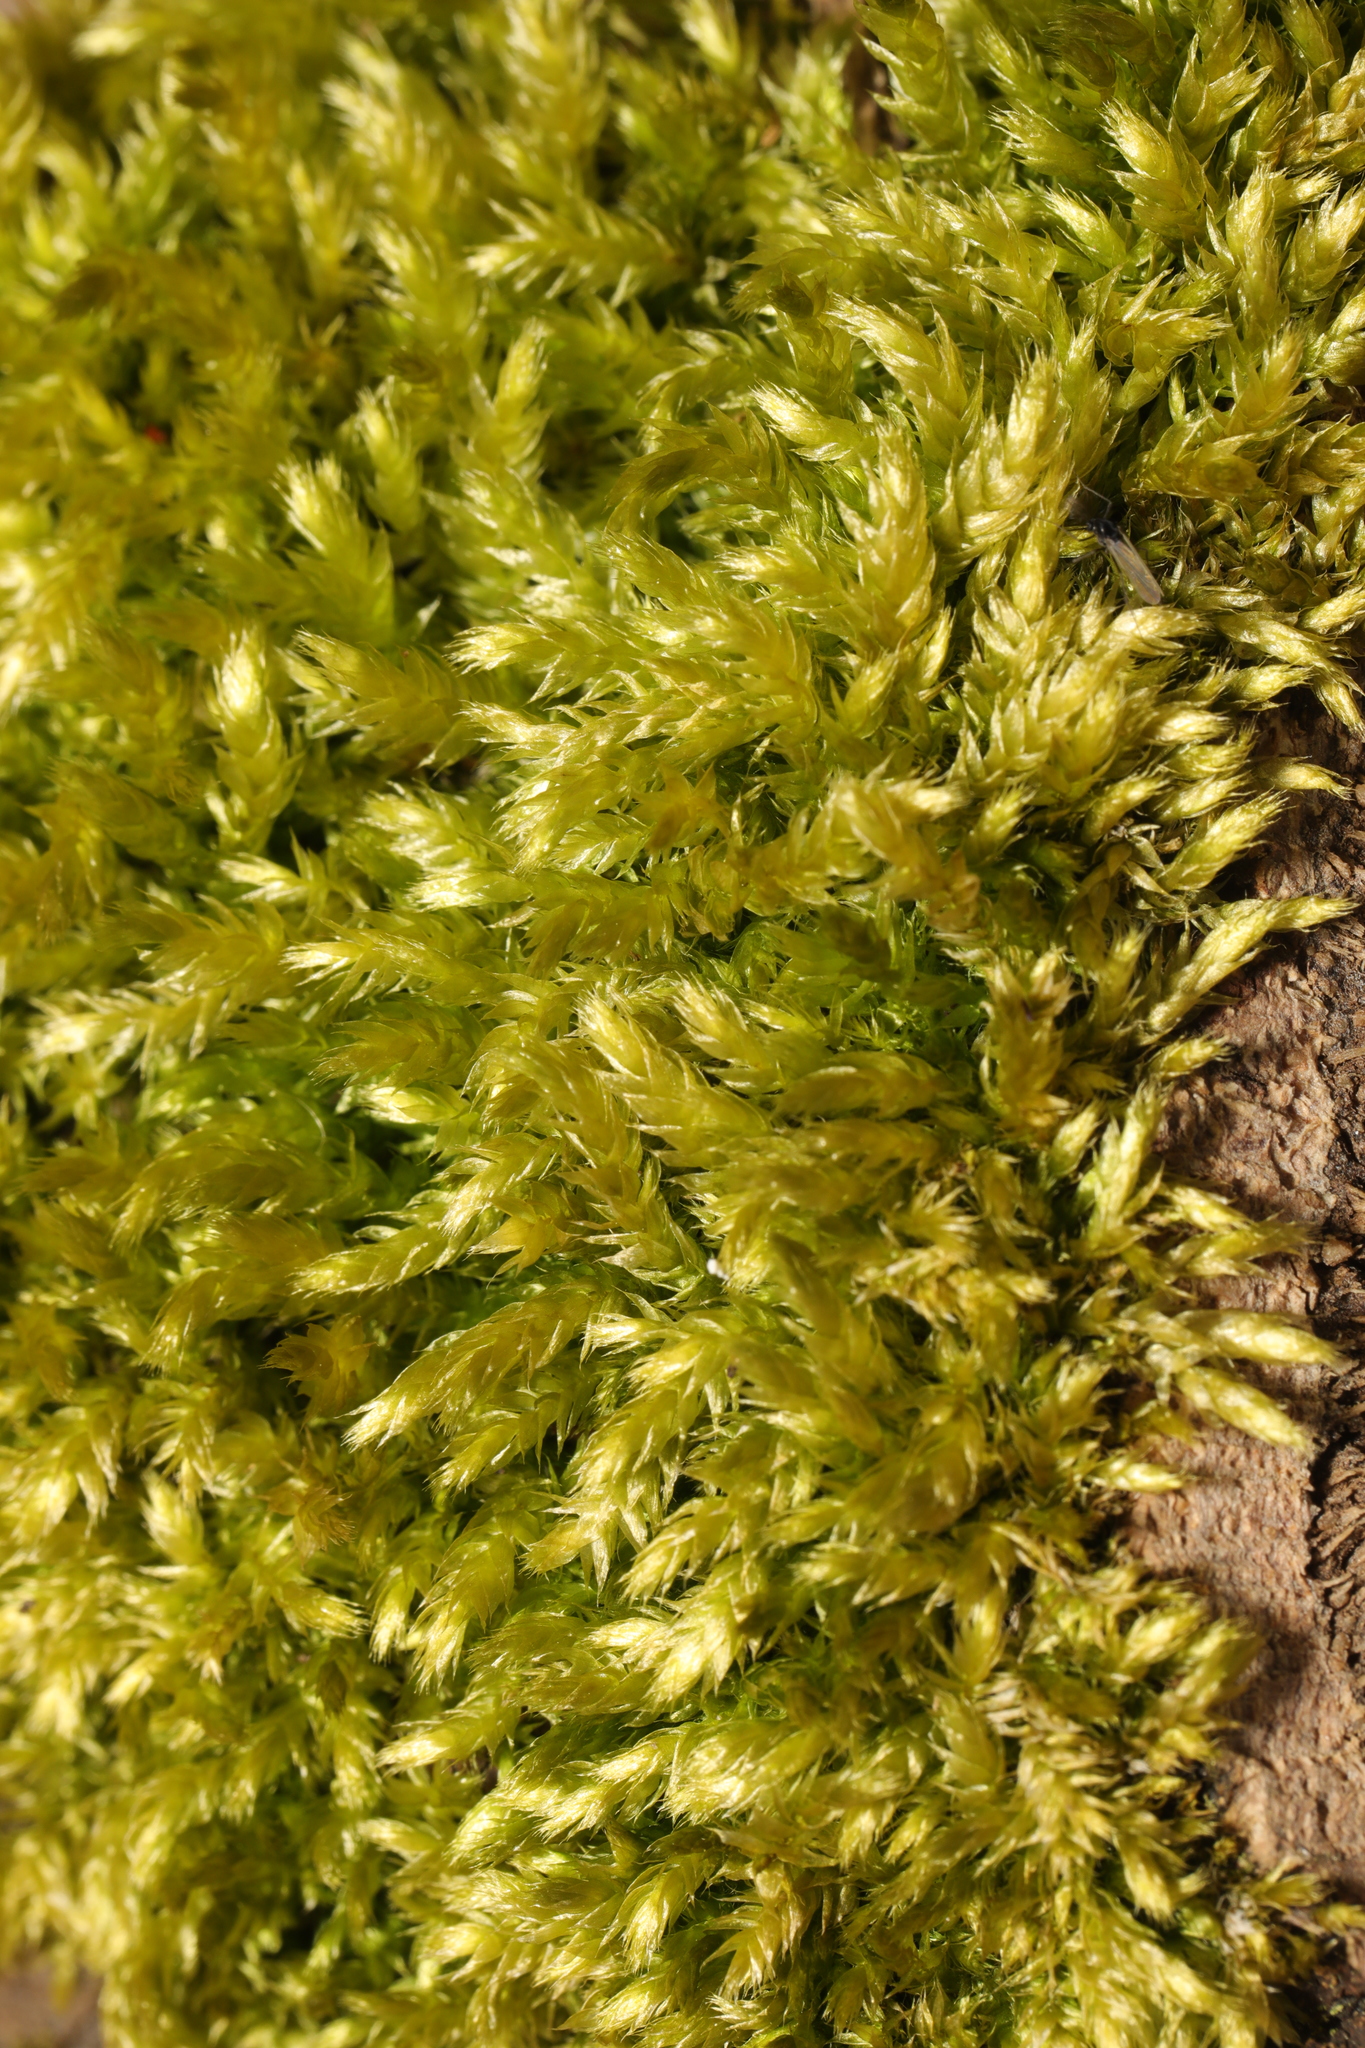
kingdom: Plantae
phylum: Bryophyta
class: Bryopsida
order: Hypnales
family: Brachytheciaceae
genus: Brachythecium
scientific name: Brachythecium rutabulum
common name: Rough-stalked feather-moss
